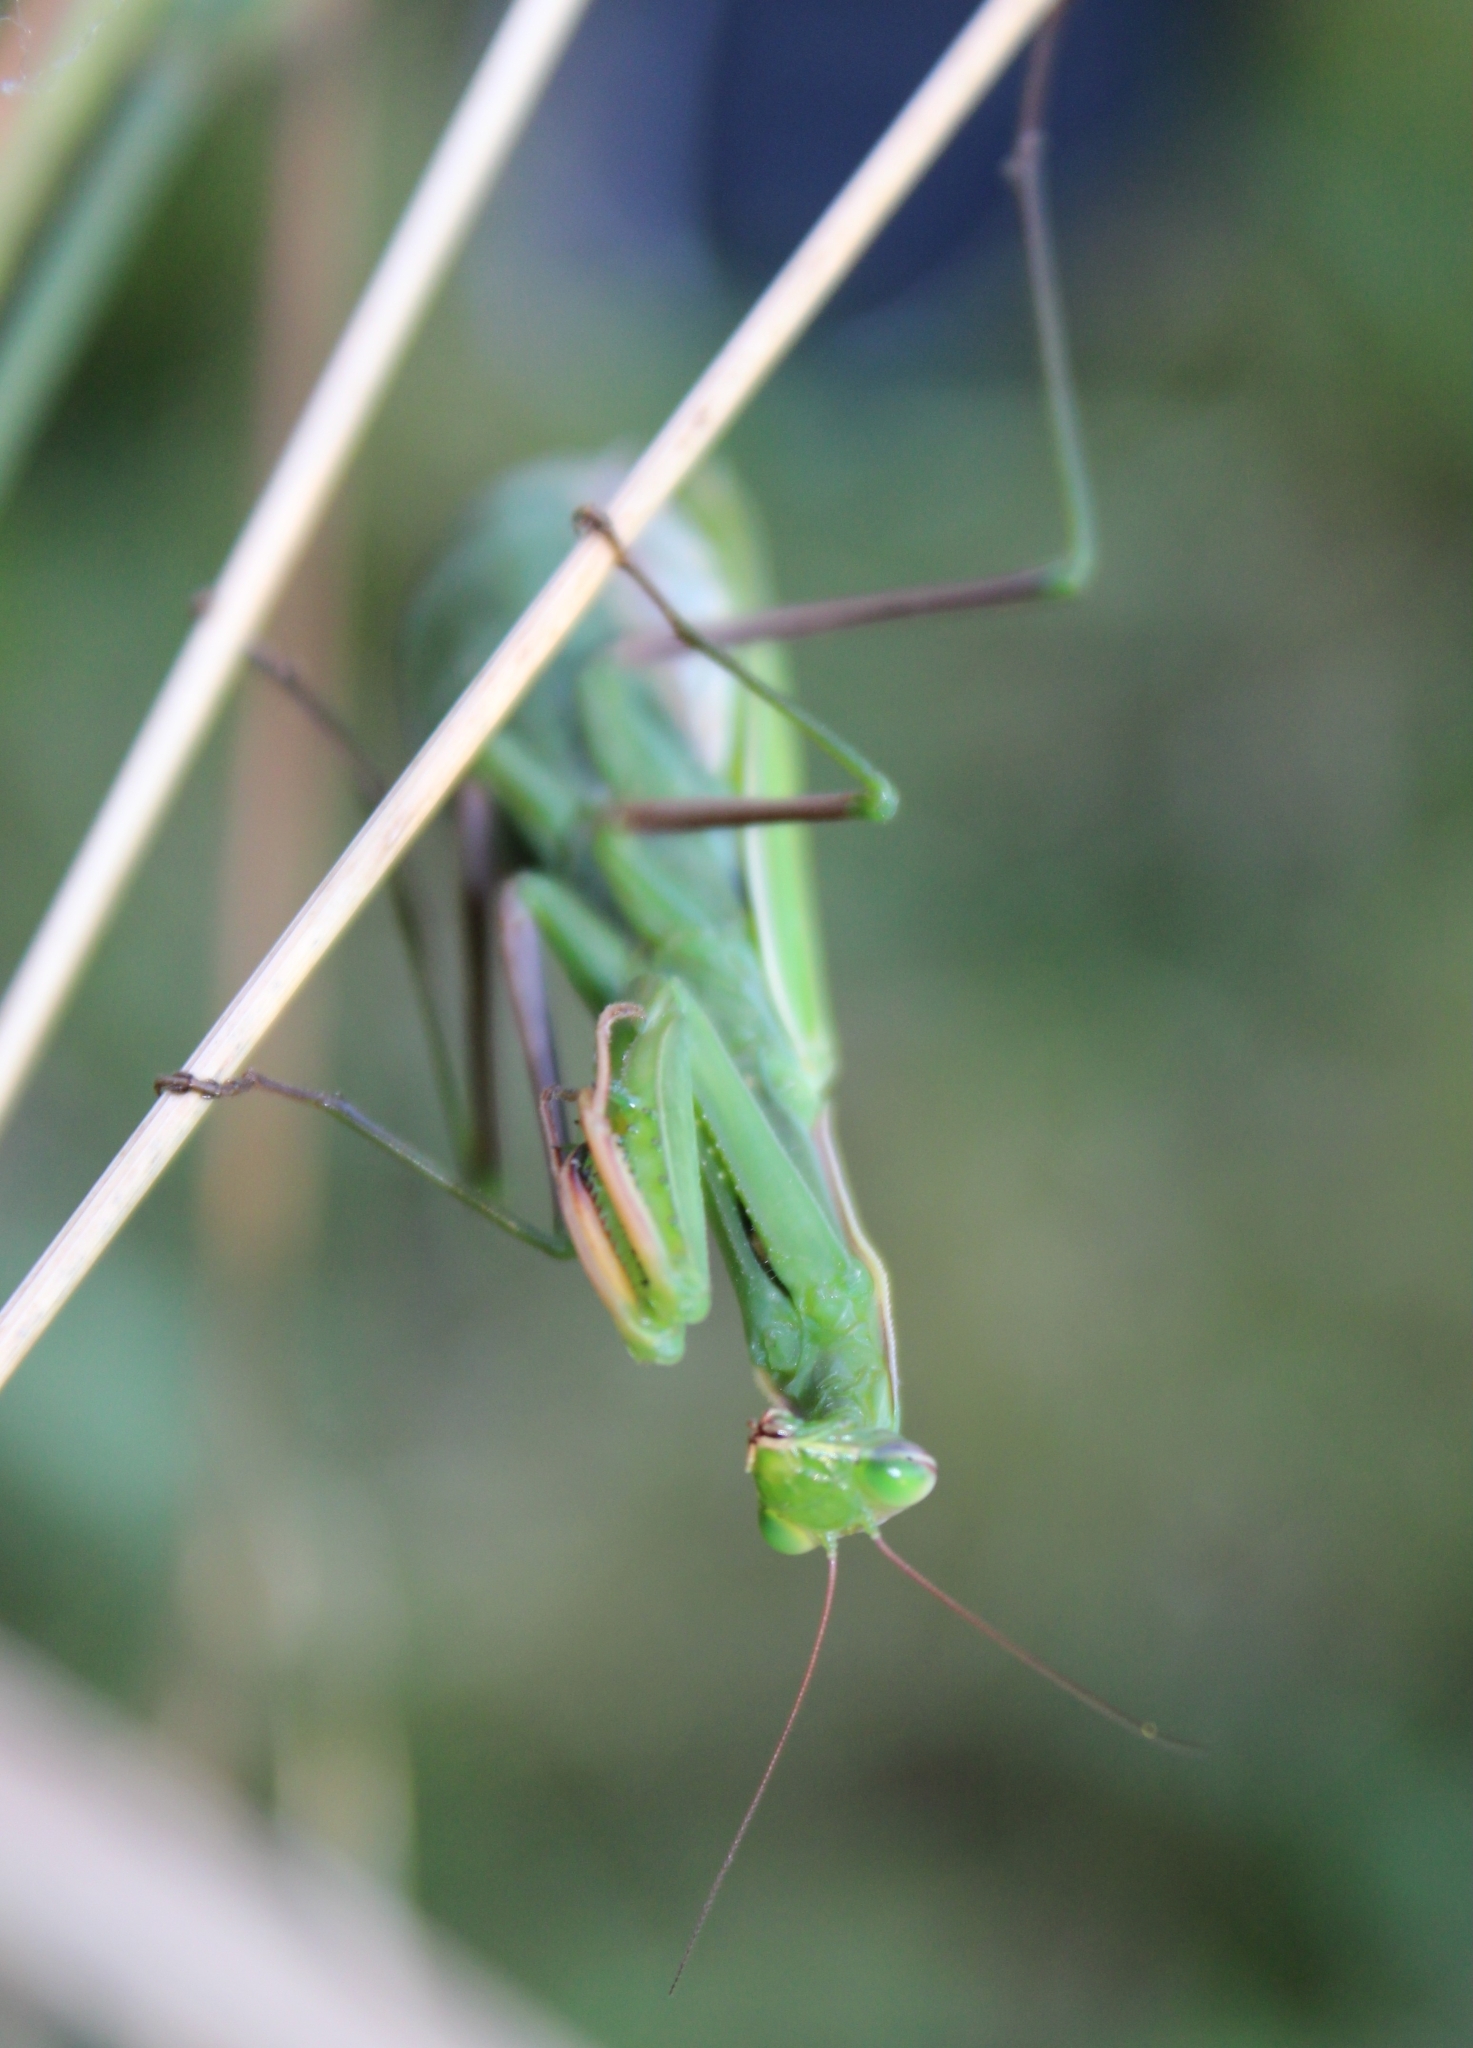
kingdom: Animalia
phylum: Arthropoda
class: Insecta
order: Mantodea
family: Mantidae
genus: Mantis
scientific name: Mantis religiosa
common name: Praying mantis
